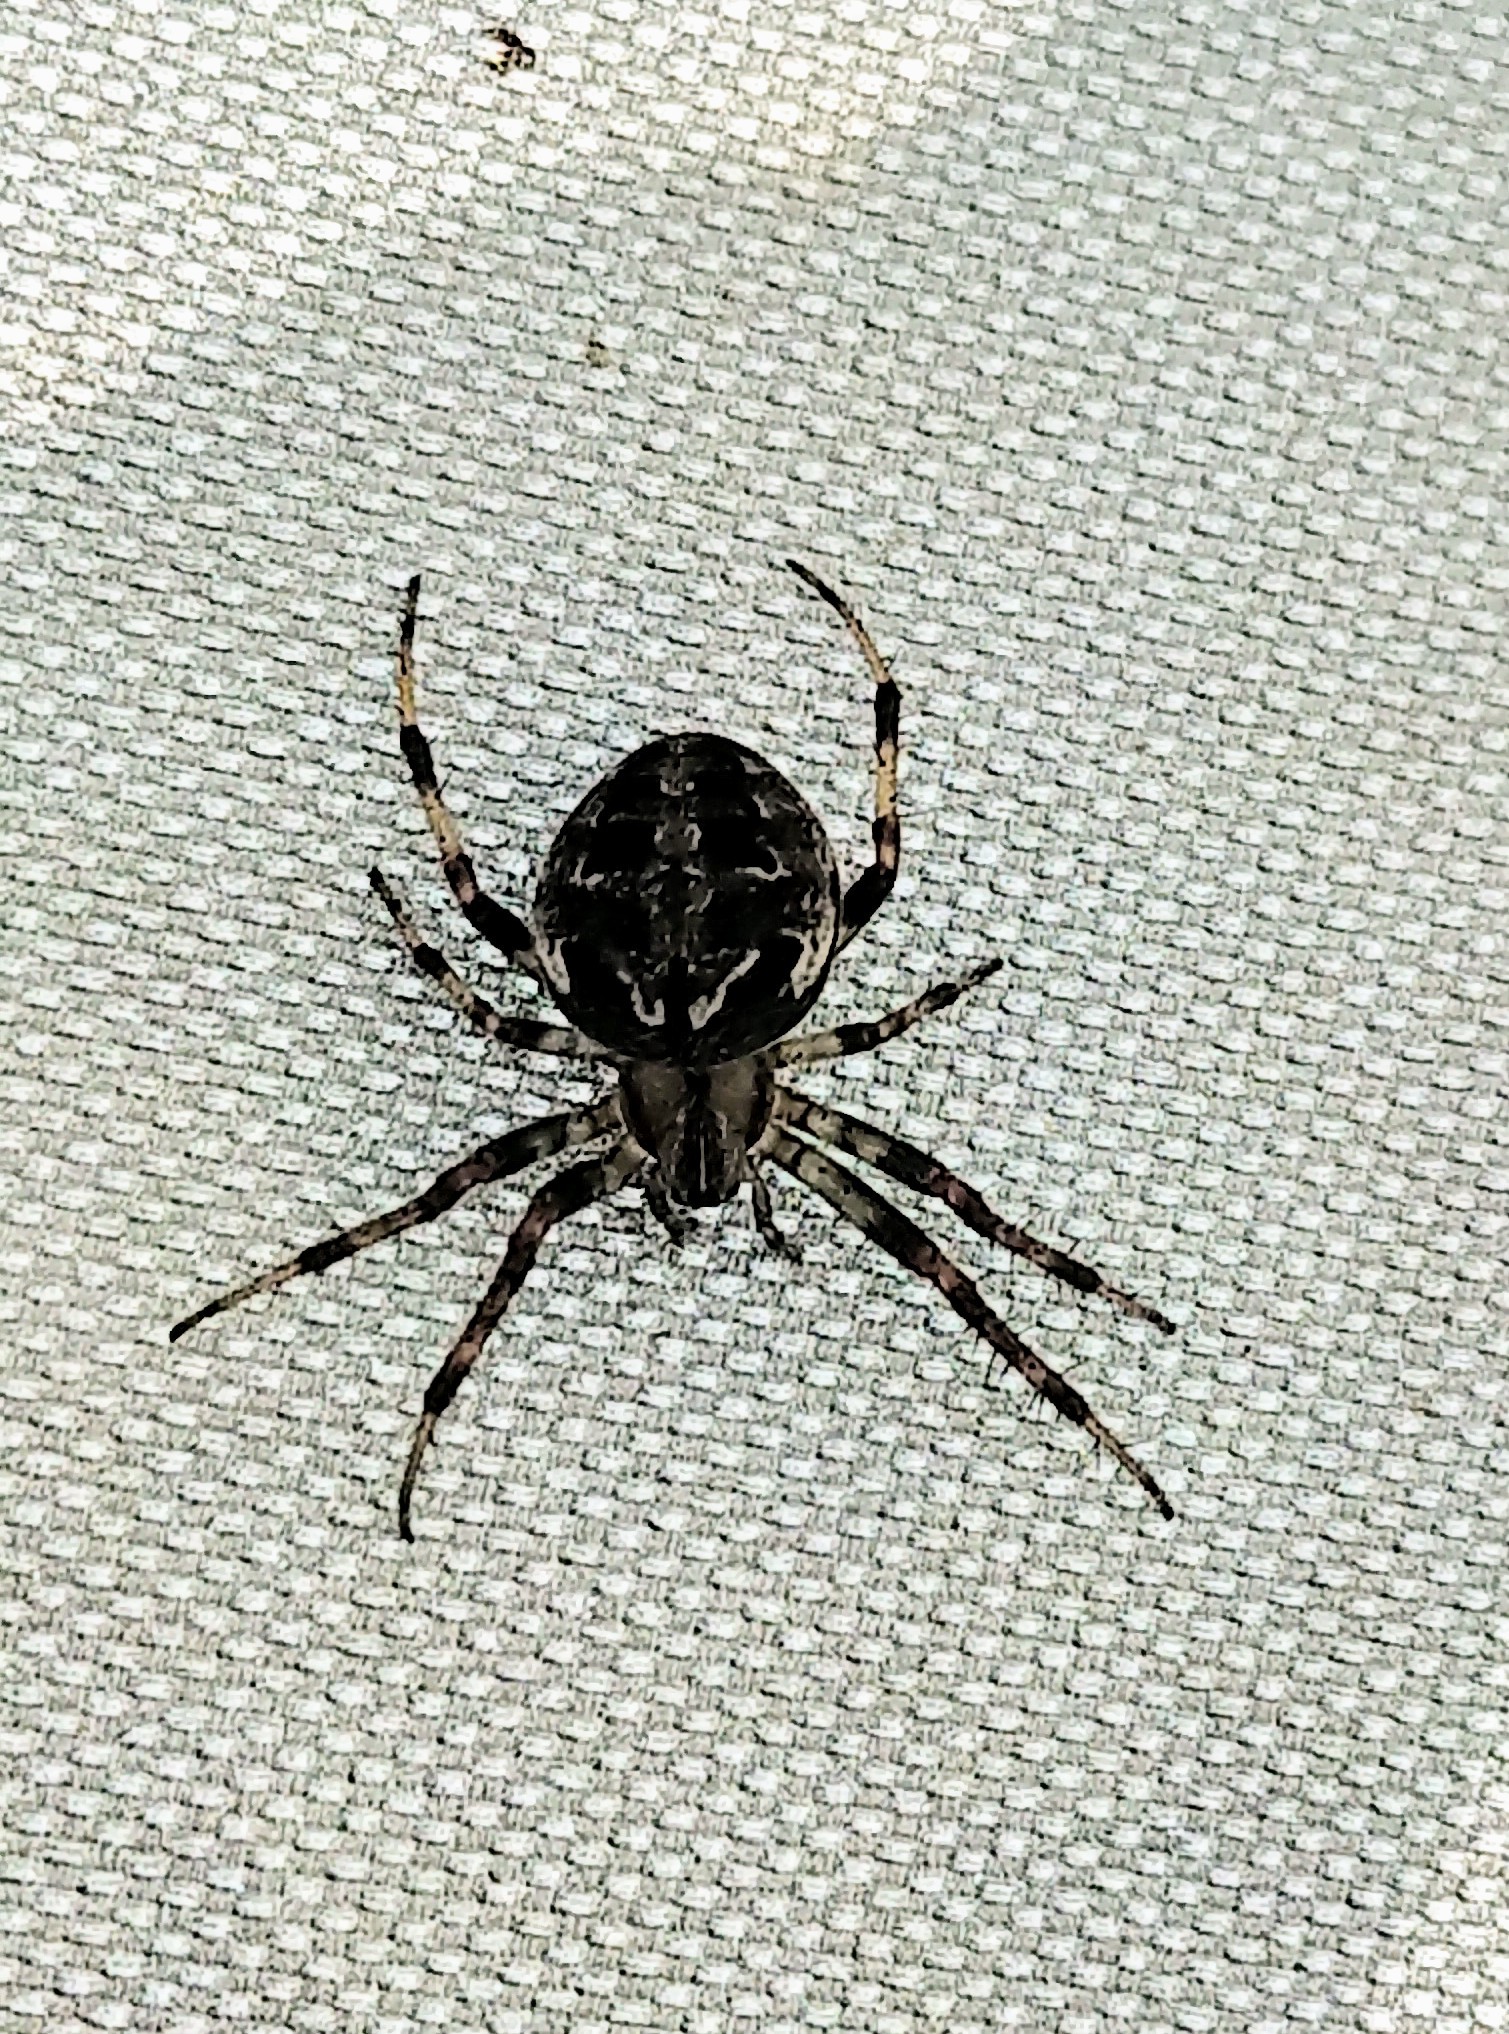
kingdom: Animalia
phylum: Arthropoda
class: Arachnida
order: Araneae
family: Araneidae
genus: Neoscona
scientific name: Neoscona arabesca
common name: Orb weavers
